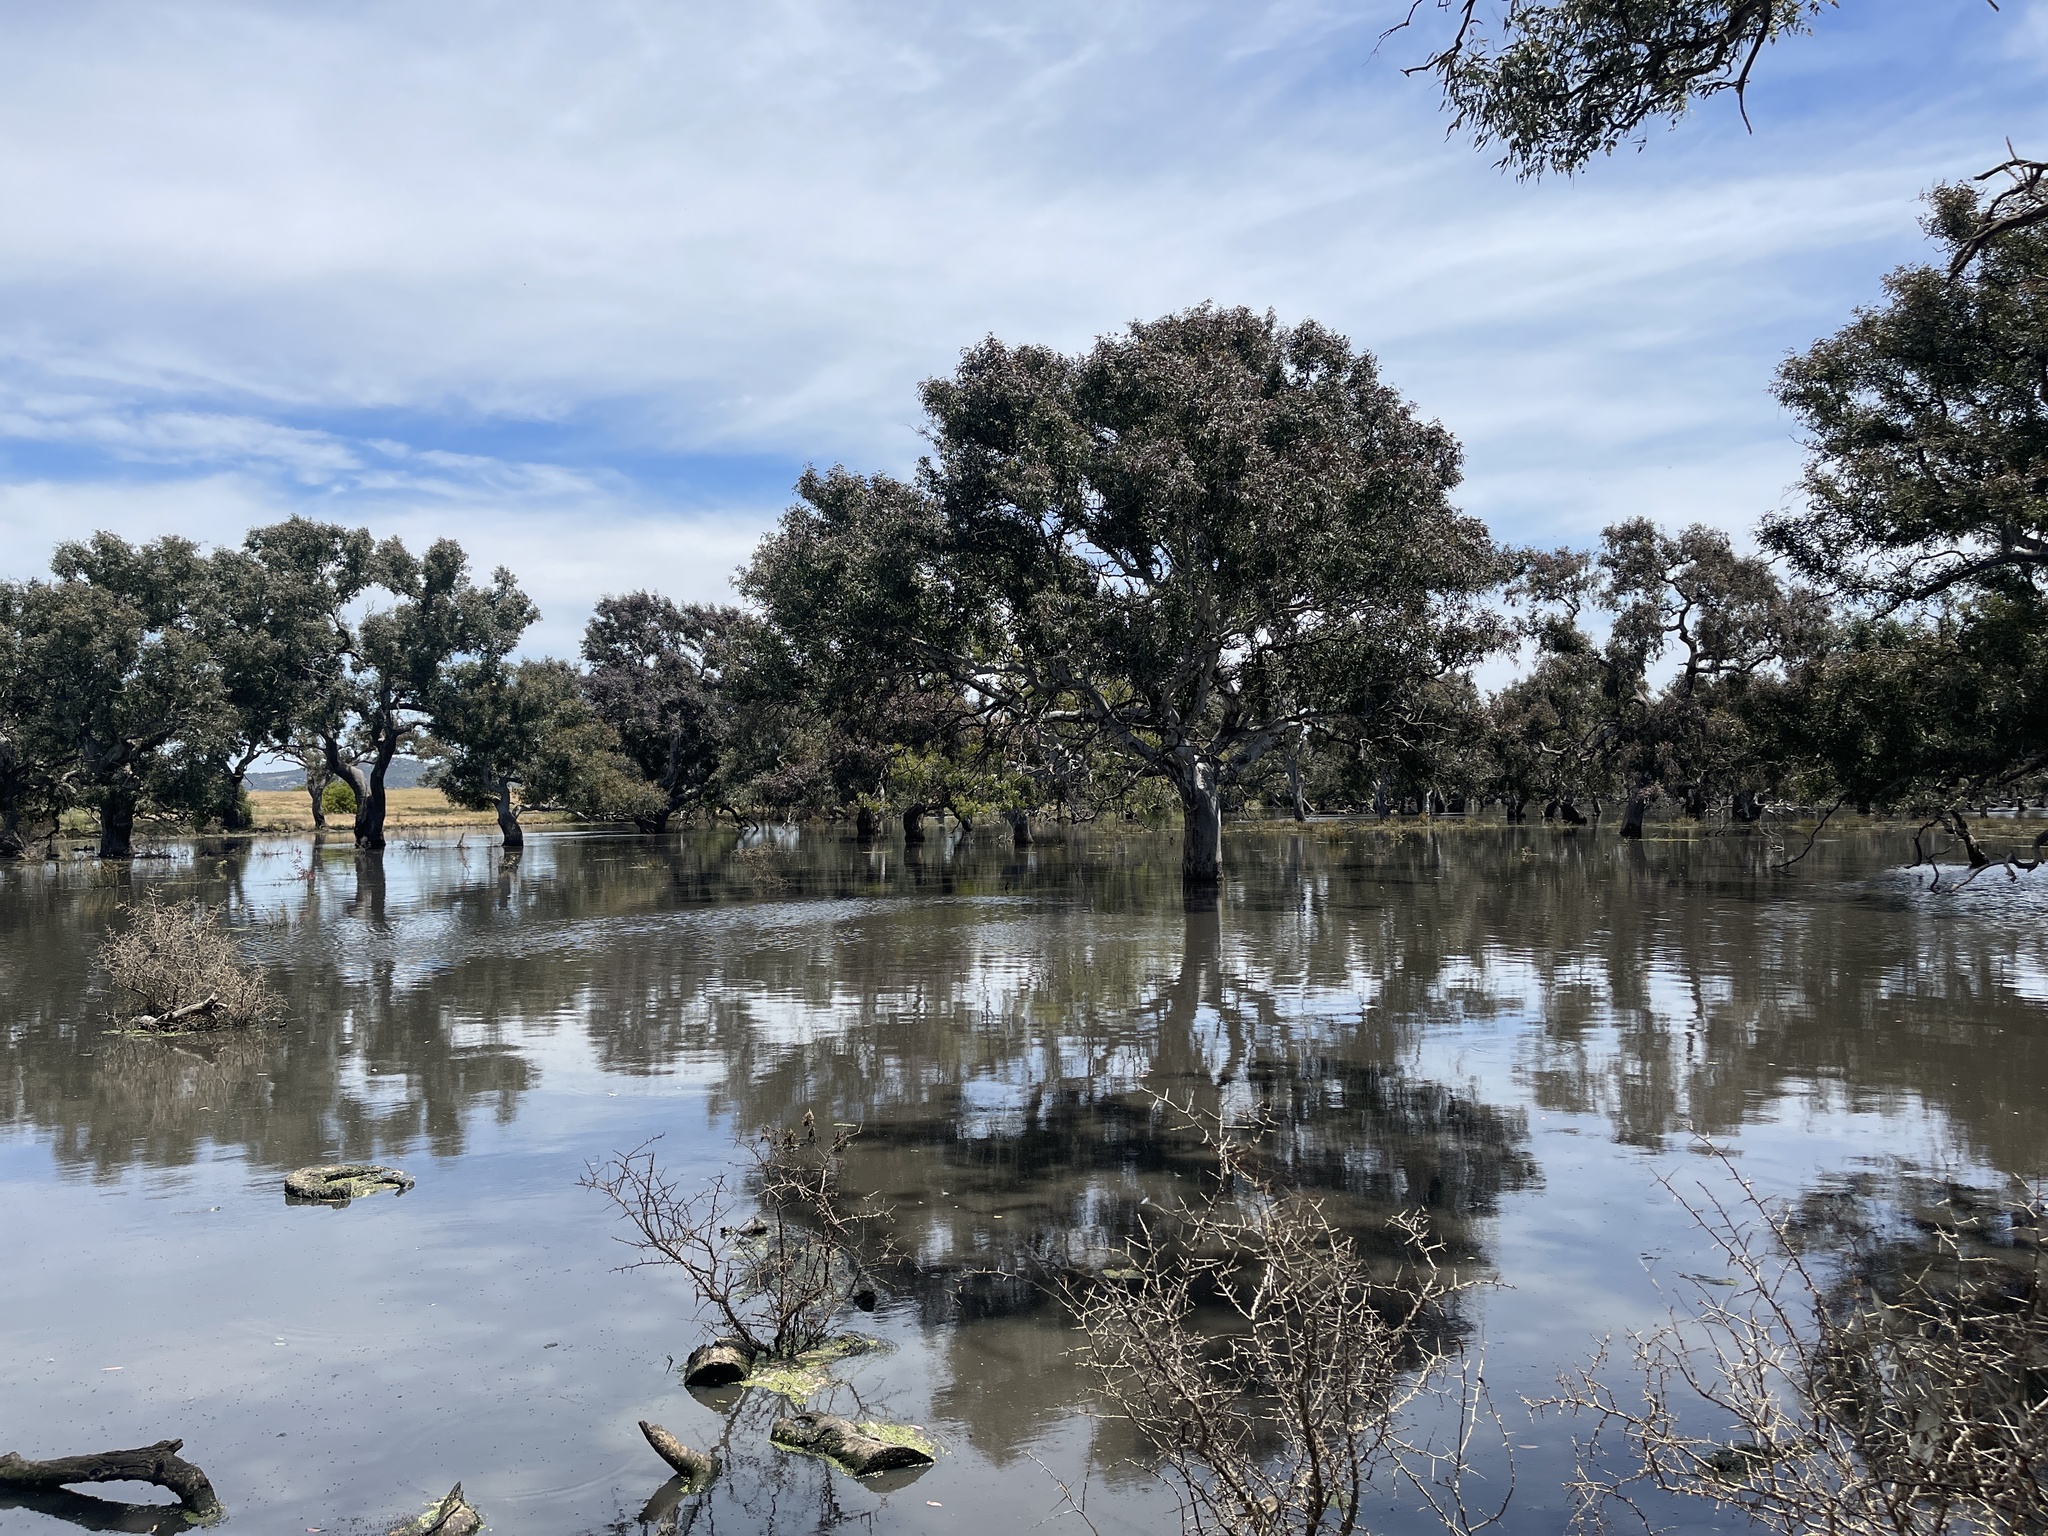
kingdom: Plantae
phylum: Tracheophyta
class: Magnoliopsida
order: Myrtales
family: Myrtaceae
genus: Eucalyptus
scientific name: Eucalyptus camaldulensis
